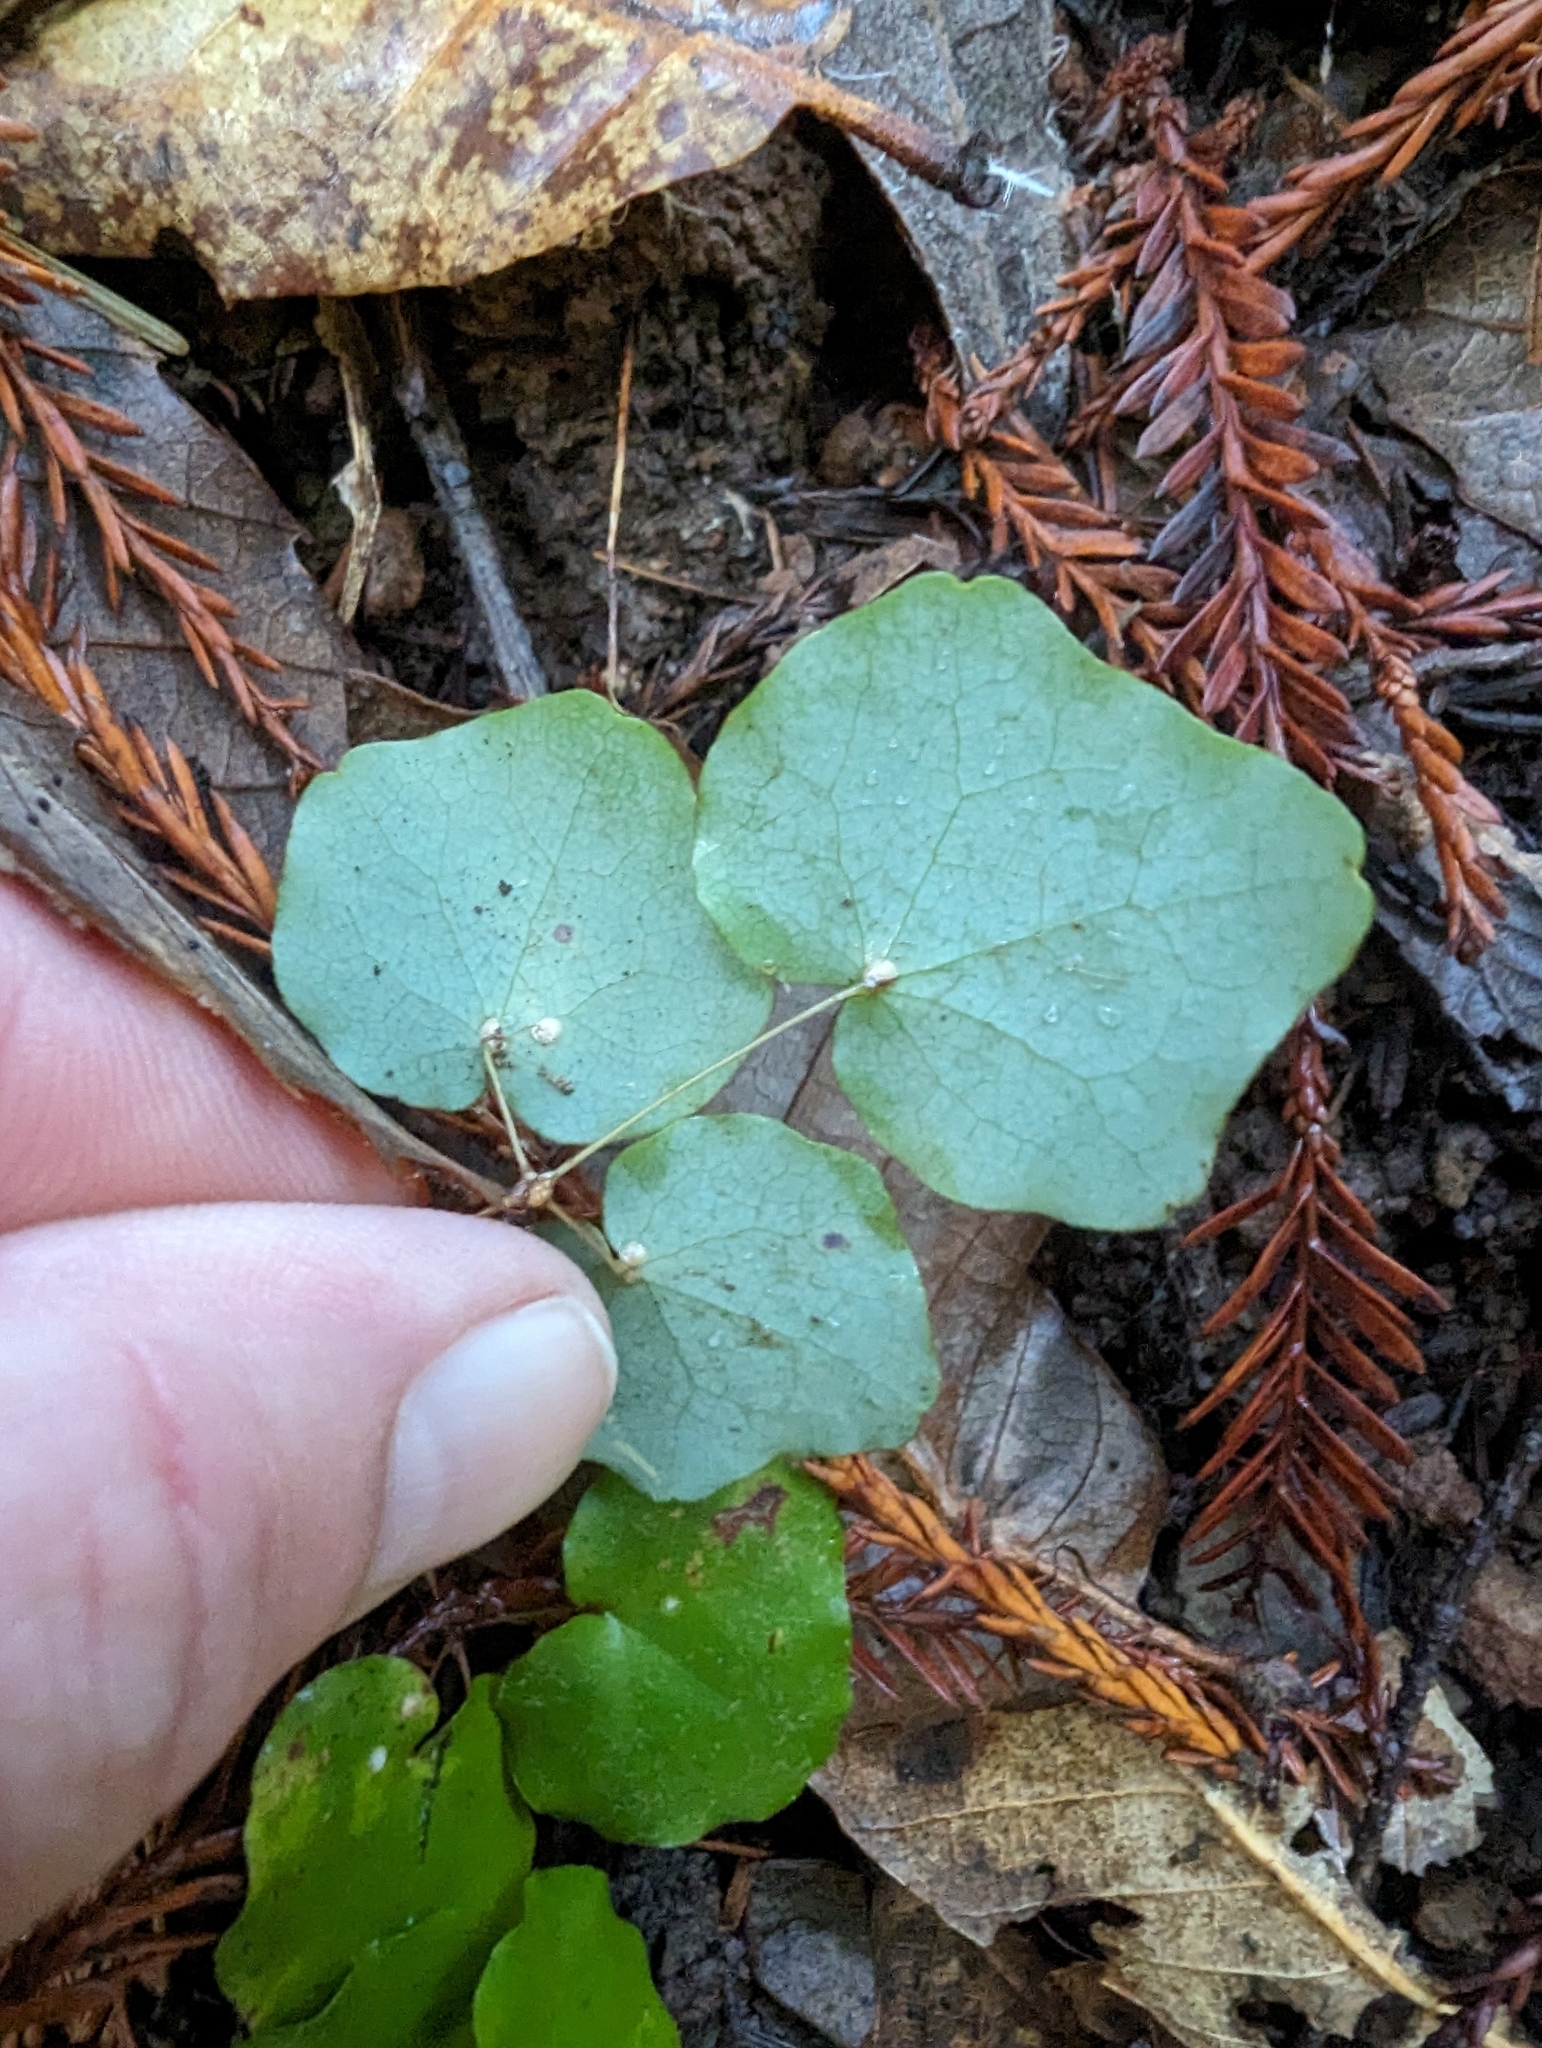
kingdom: Plantae
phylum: Tracheophyta
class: Magnoliopsida
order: Ranunculales
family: Berberidaceae
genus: Vancouveria
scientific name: Vancouveria planipetala
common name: Redwood-ivy
